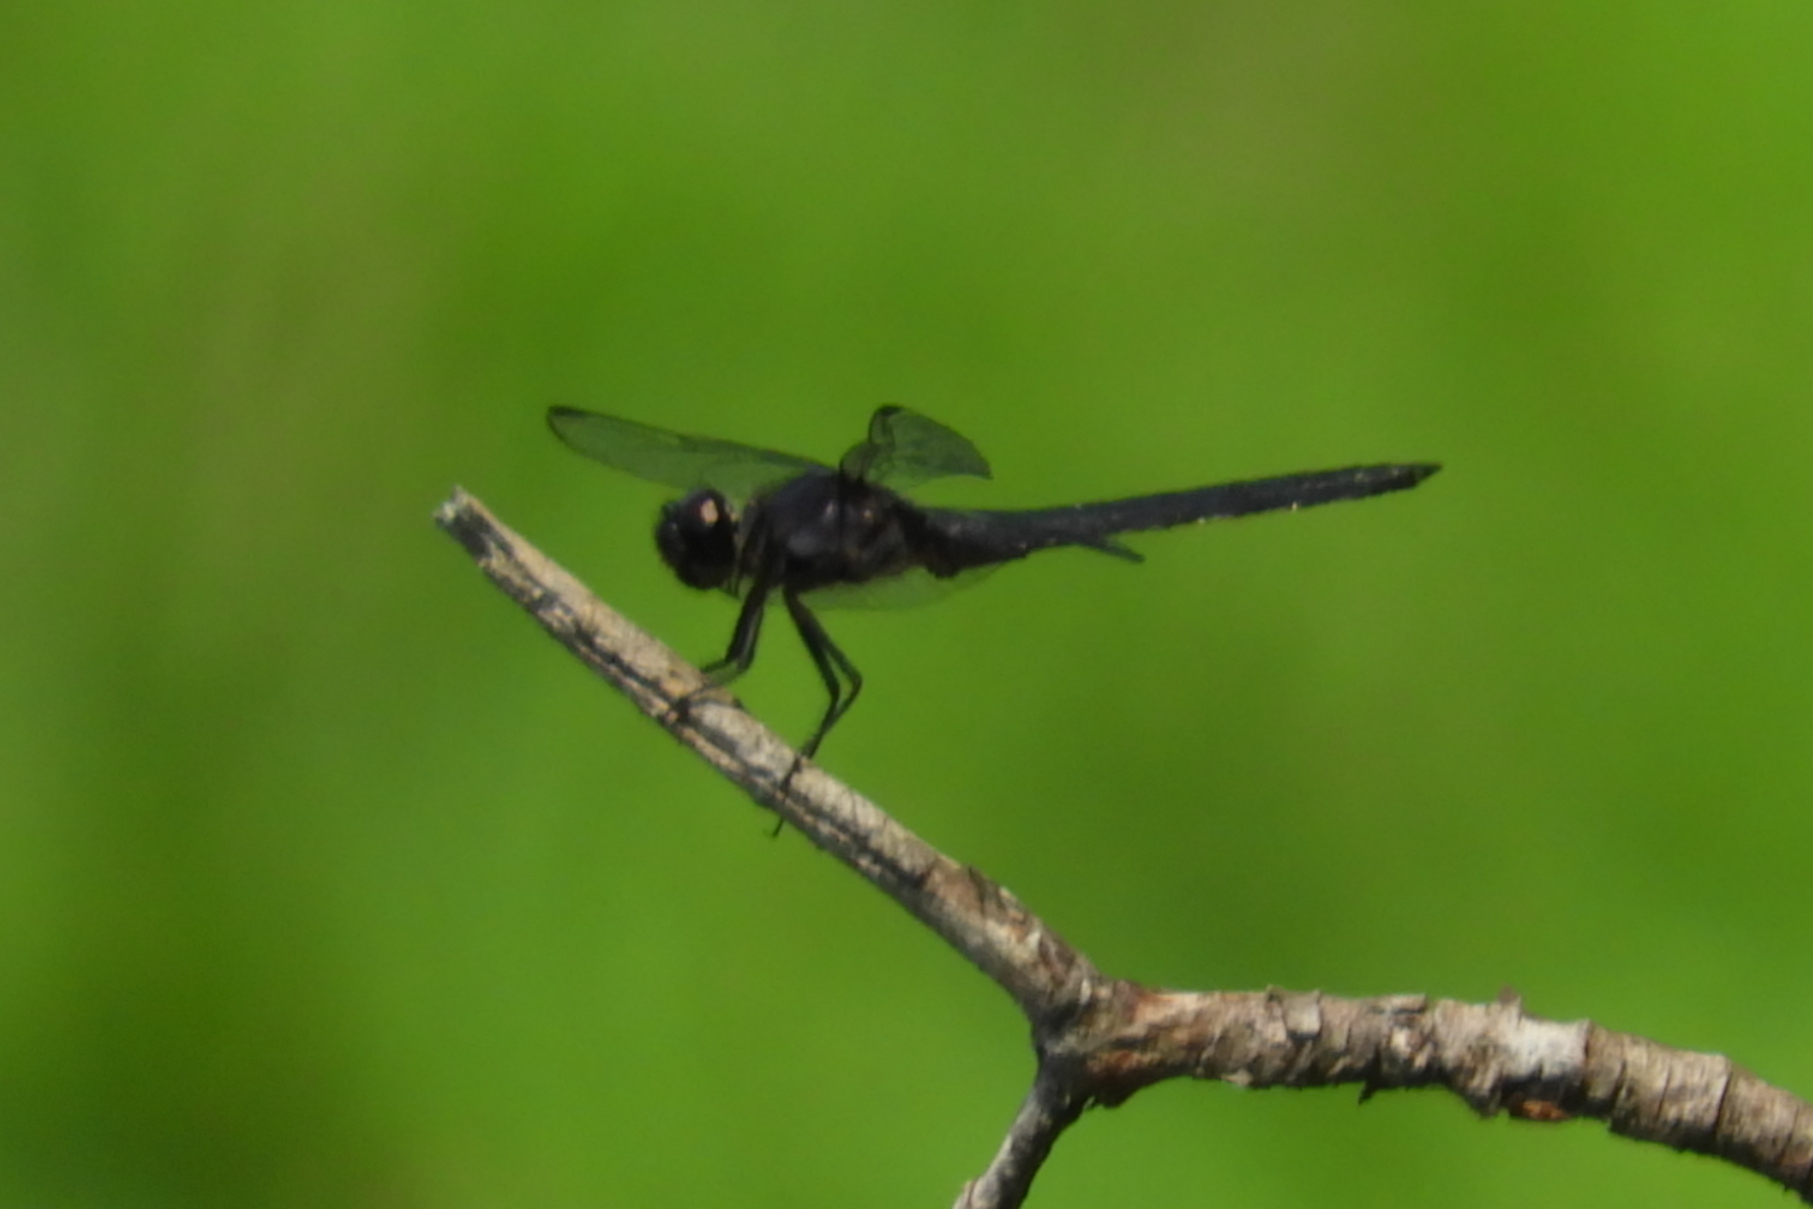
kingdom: Animalia
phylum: Arthropoda
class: Insecta
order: Odonata
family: Libellulidae
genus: Libellula
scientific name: Libellula incesta
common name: Slaty skimmer
